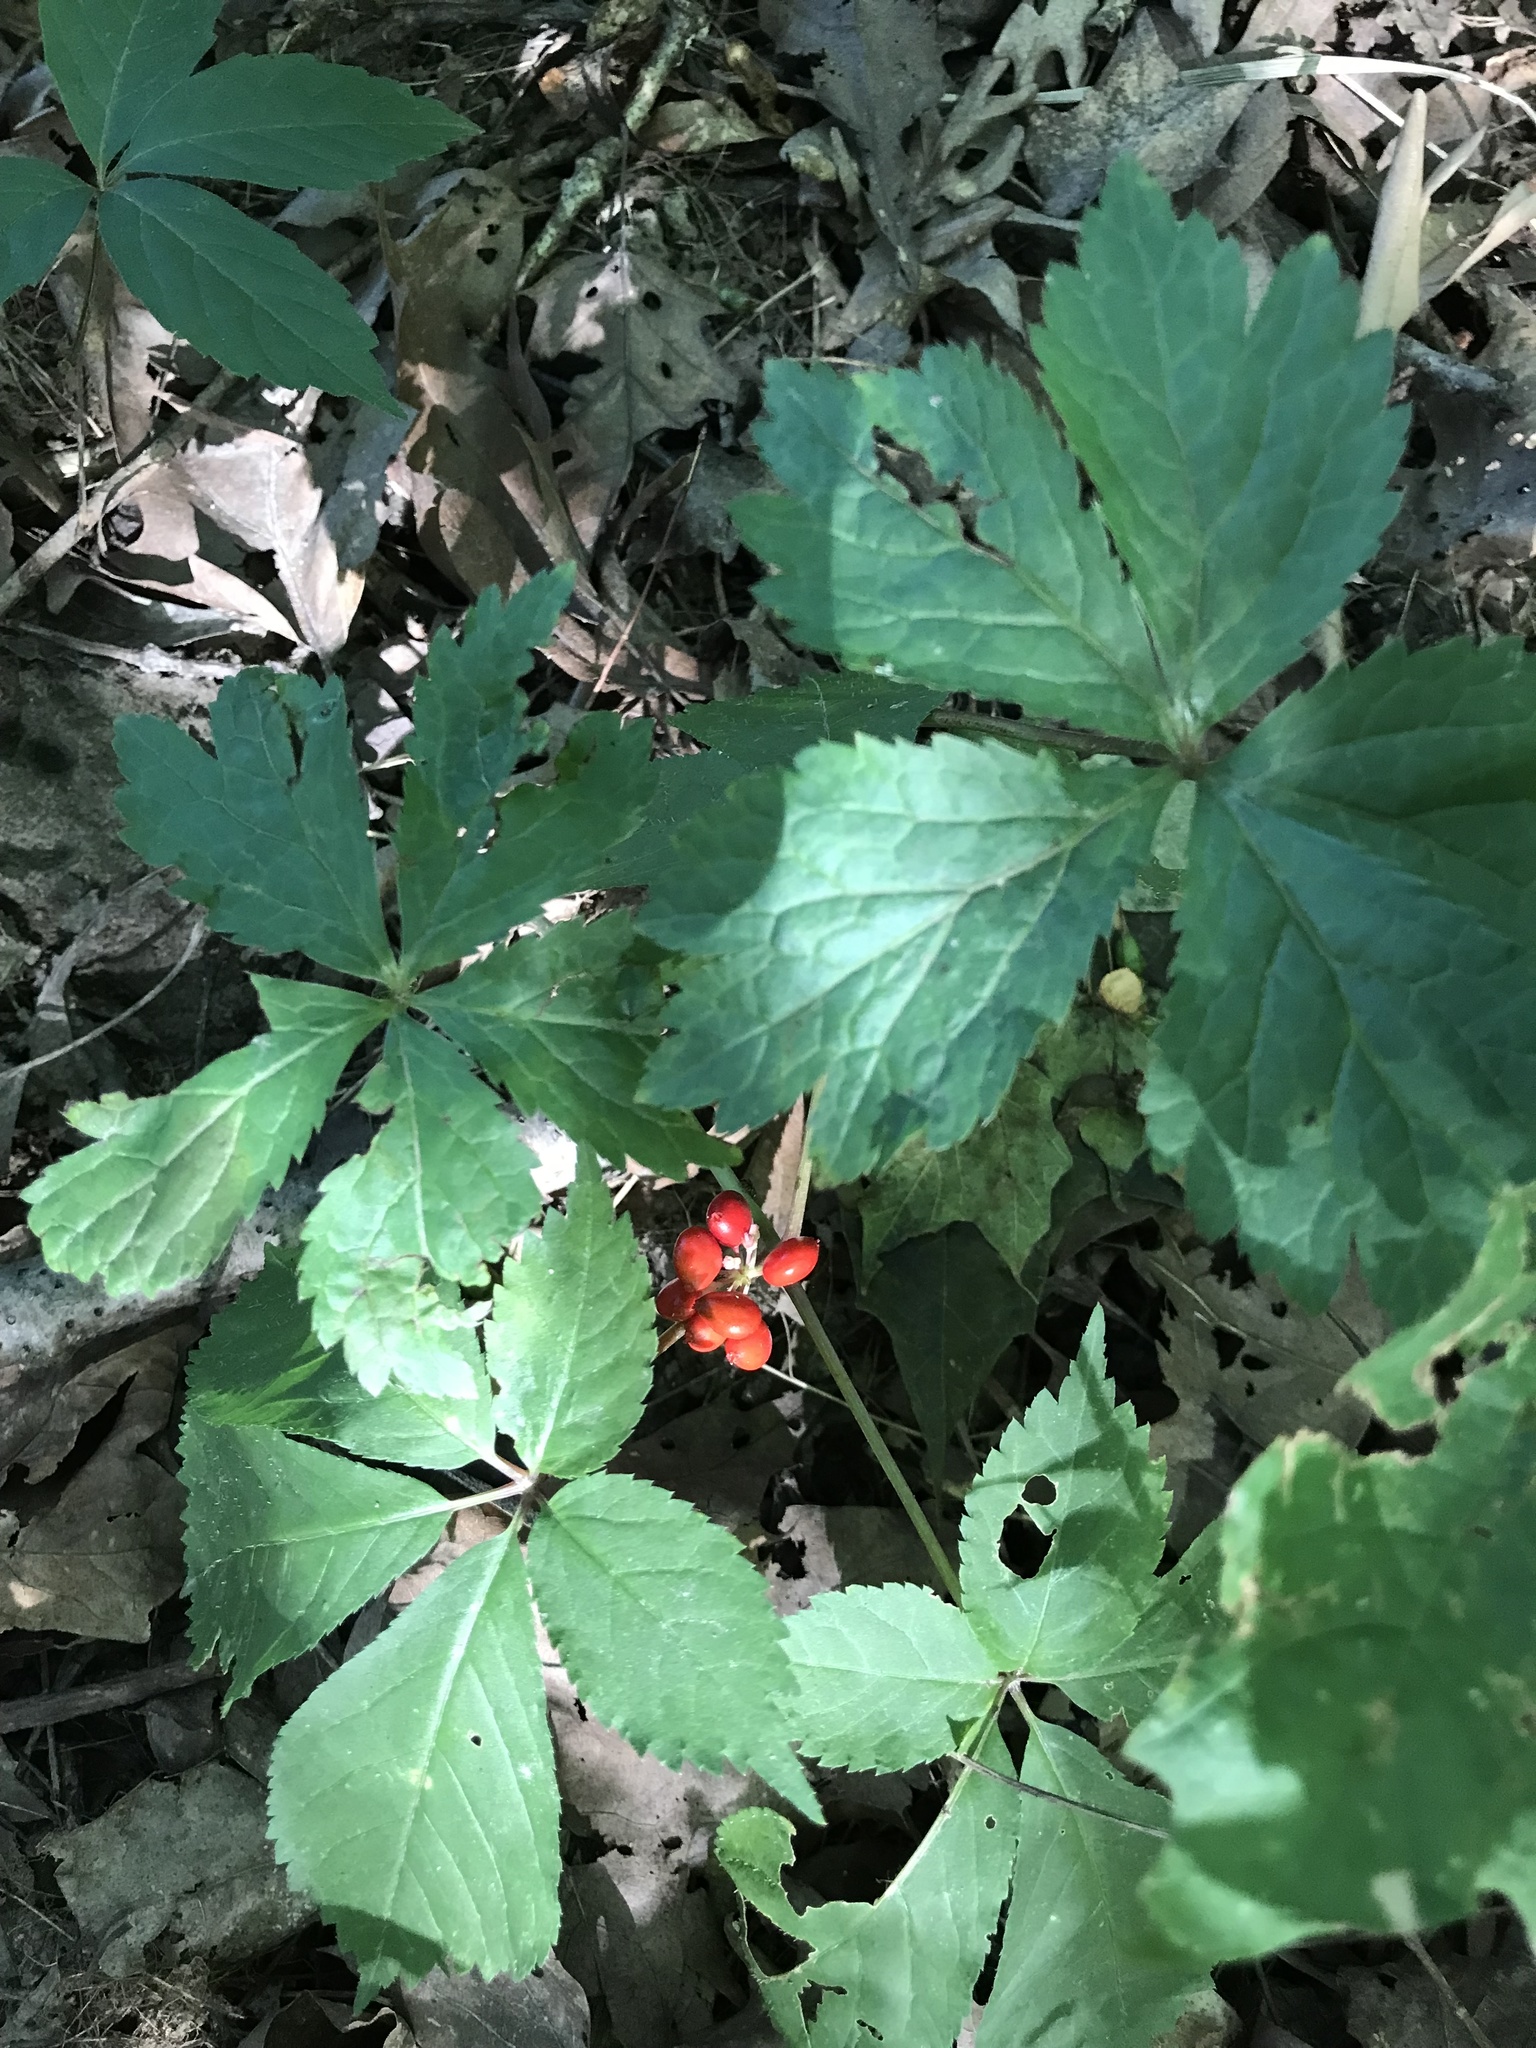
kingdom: Plantae
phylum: Tracheophyta
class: Magnoliopsida
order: Apiales
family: Araliaceae
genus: Panax
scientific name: Panax quinquefolius
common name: American ginseng
